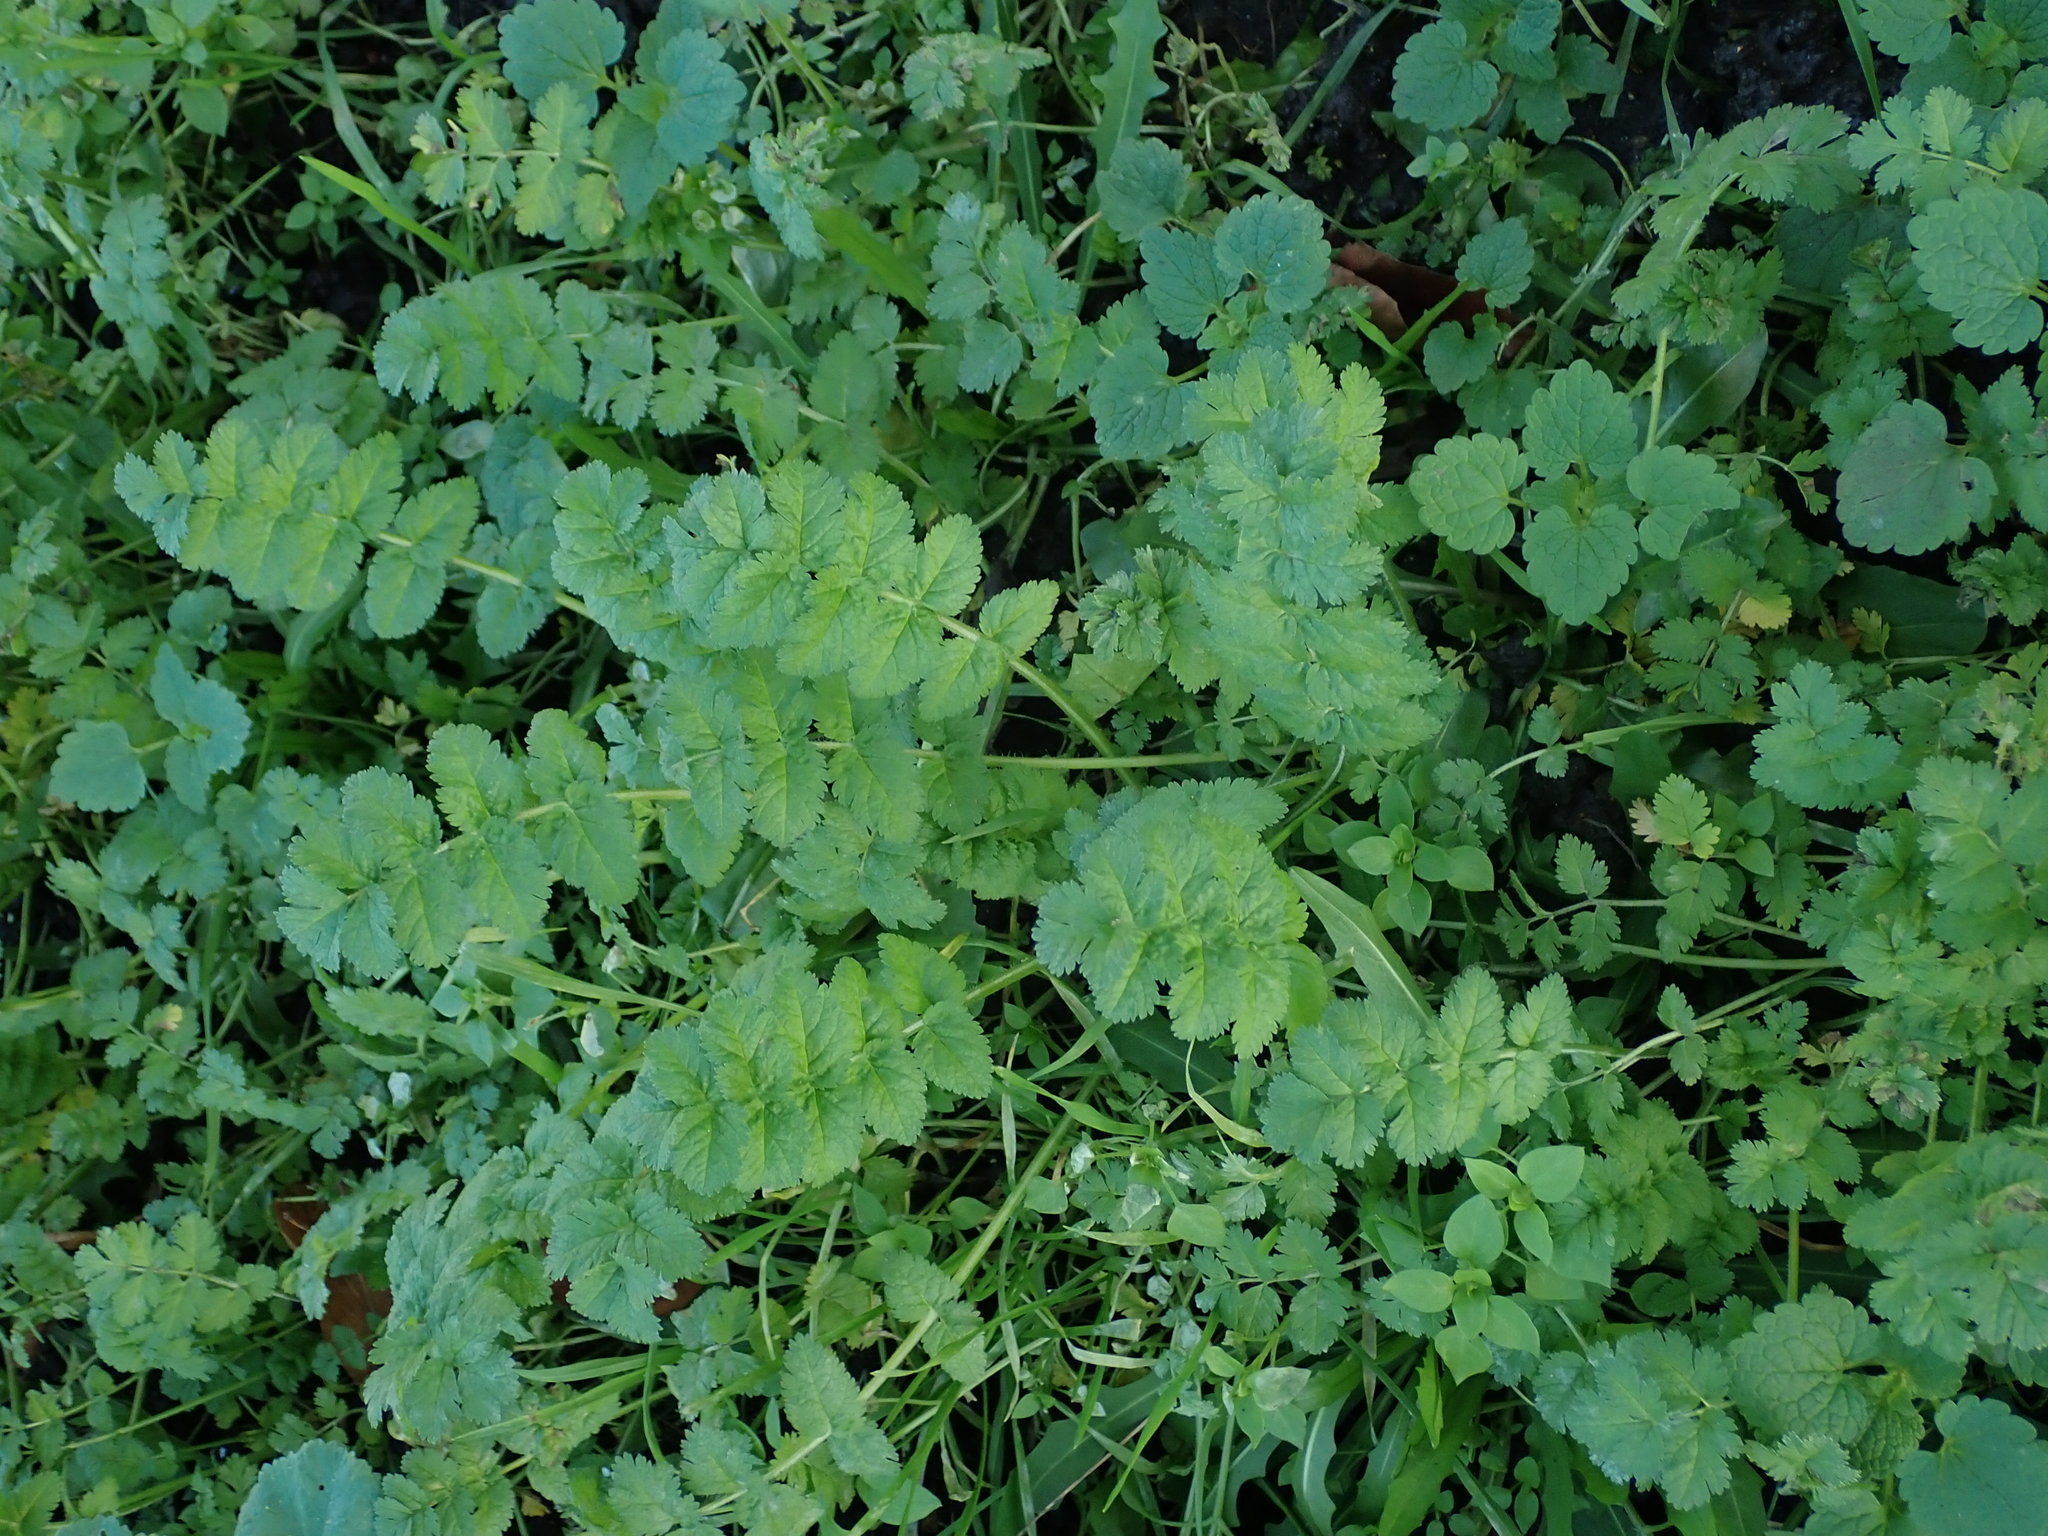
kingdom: Plantae
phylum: Tracheophyta
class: Magnoliopsida
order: Geraniales
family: Geraniaceae
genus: Erodium
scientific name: Erodium moschatum
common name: Musk stork's-bill
